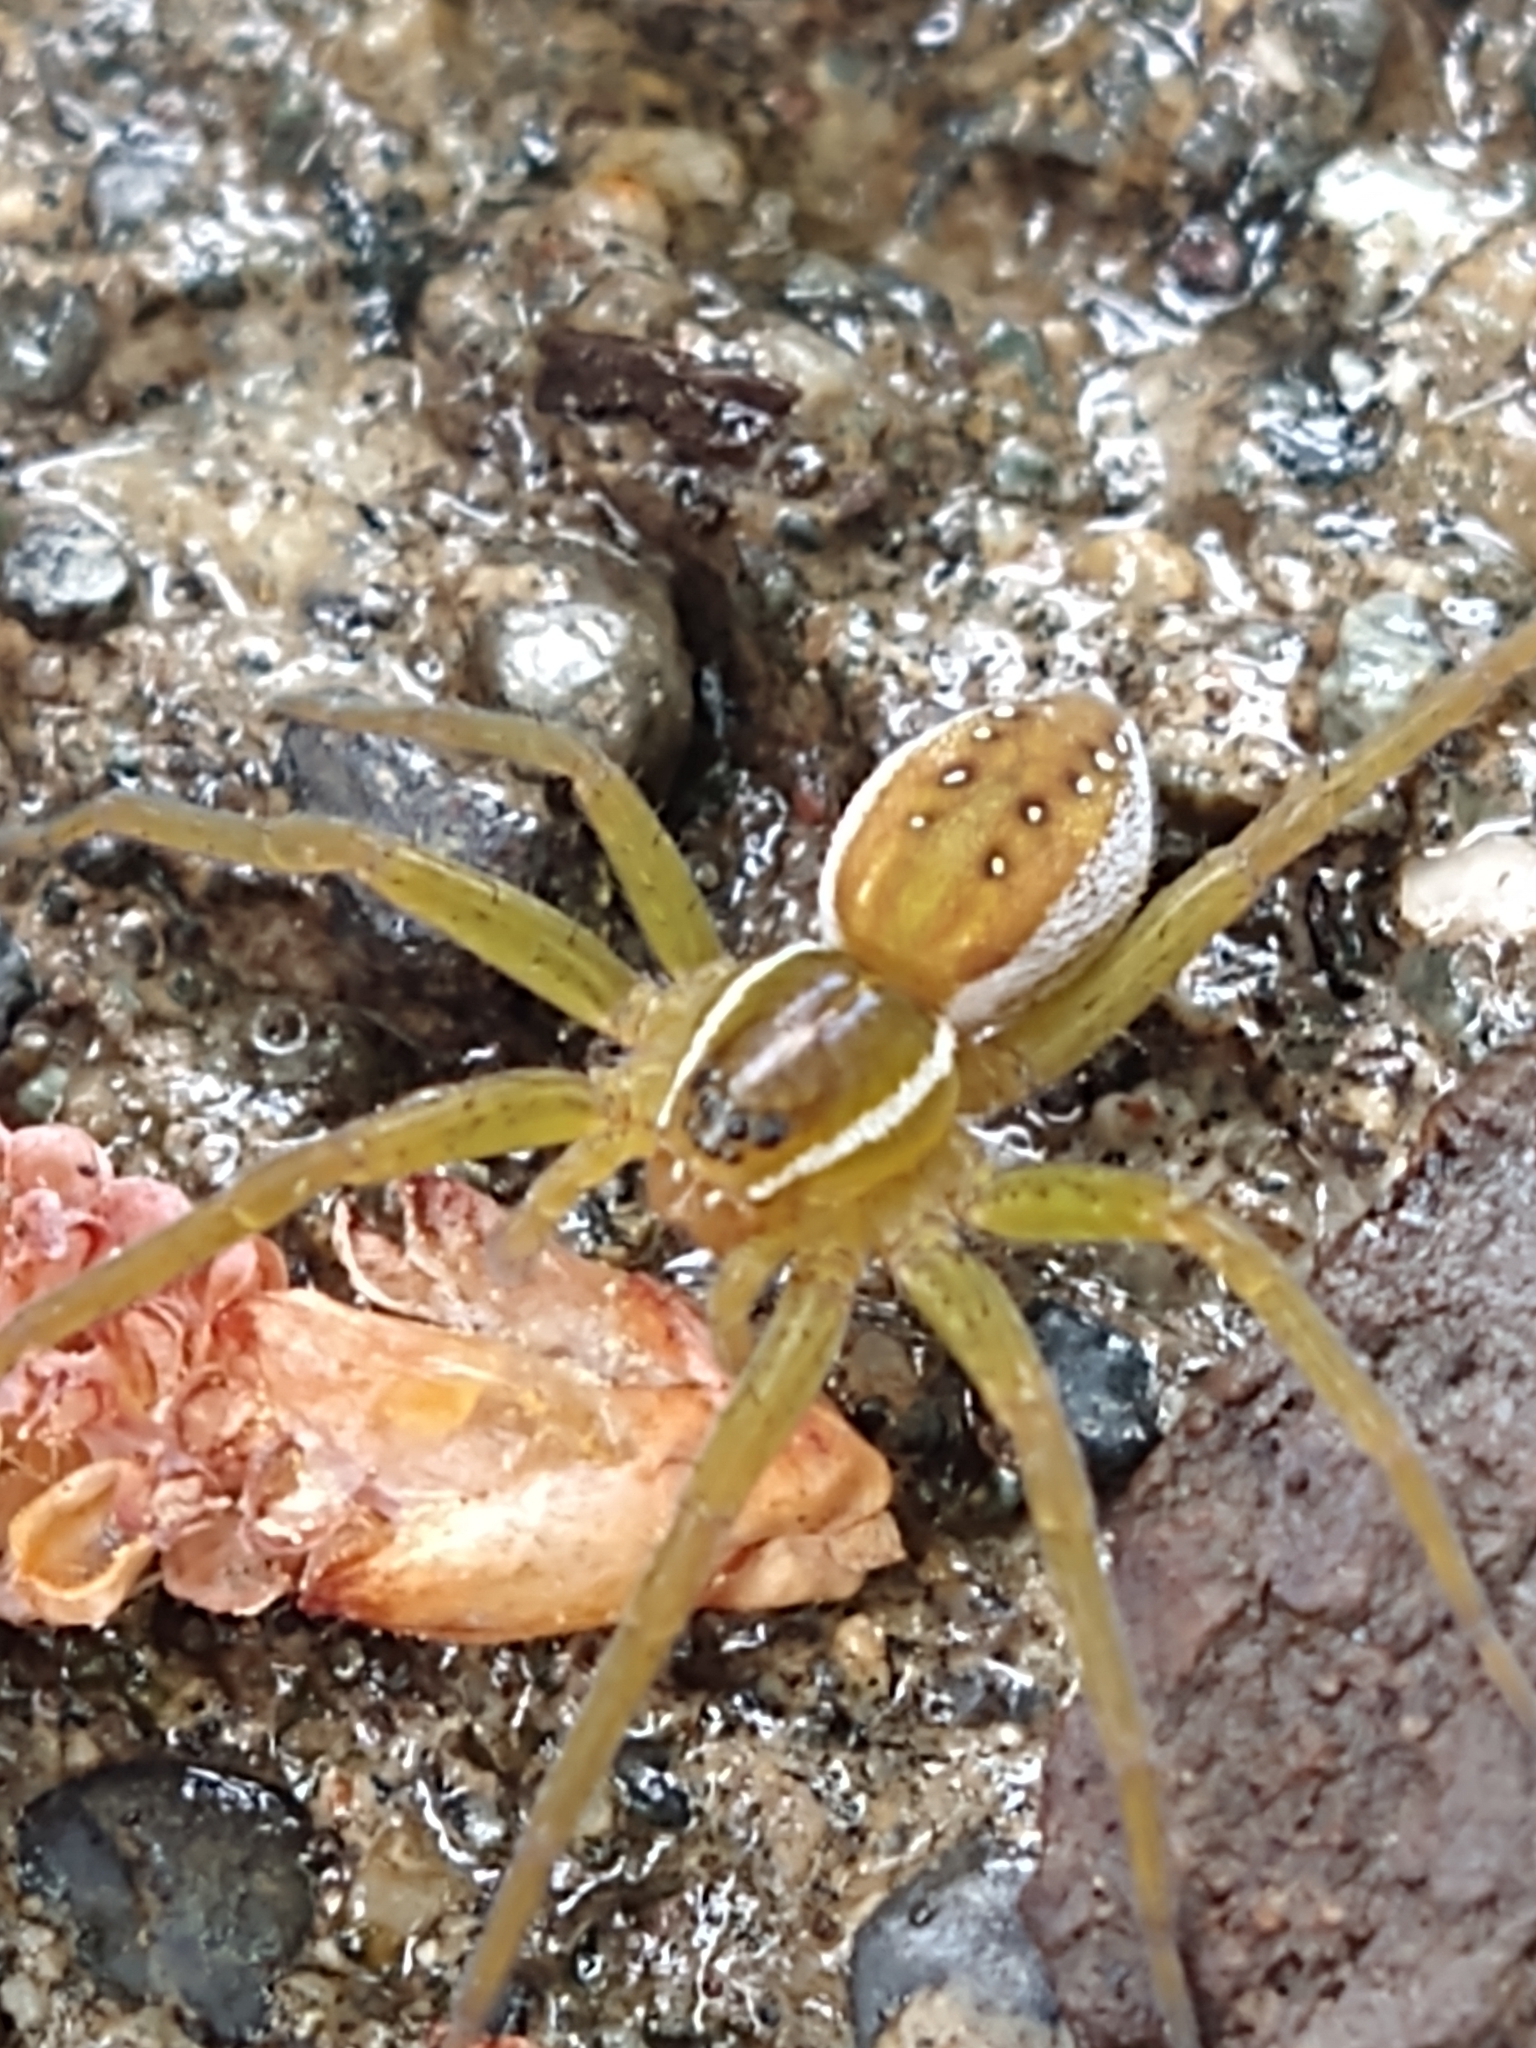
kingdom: Animalia
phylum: Arthropoda
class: Arachnida
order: Araneae
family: Pisauridae
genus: Dolomedes
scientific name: Dolomedes triton
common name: Six-spotted fishing spider
